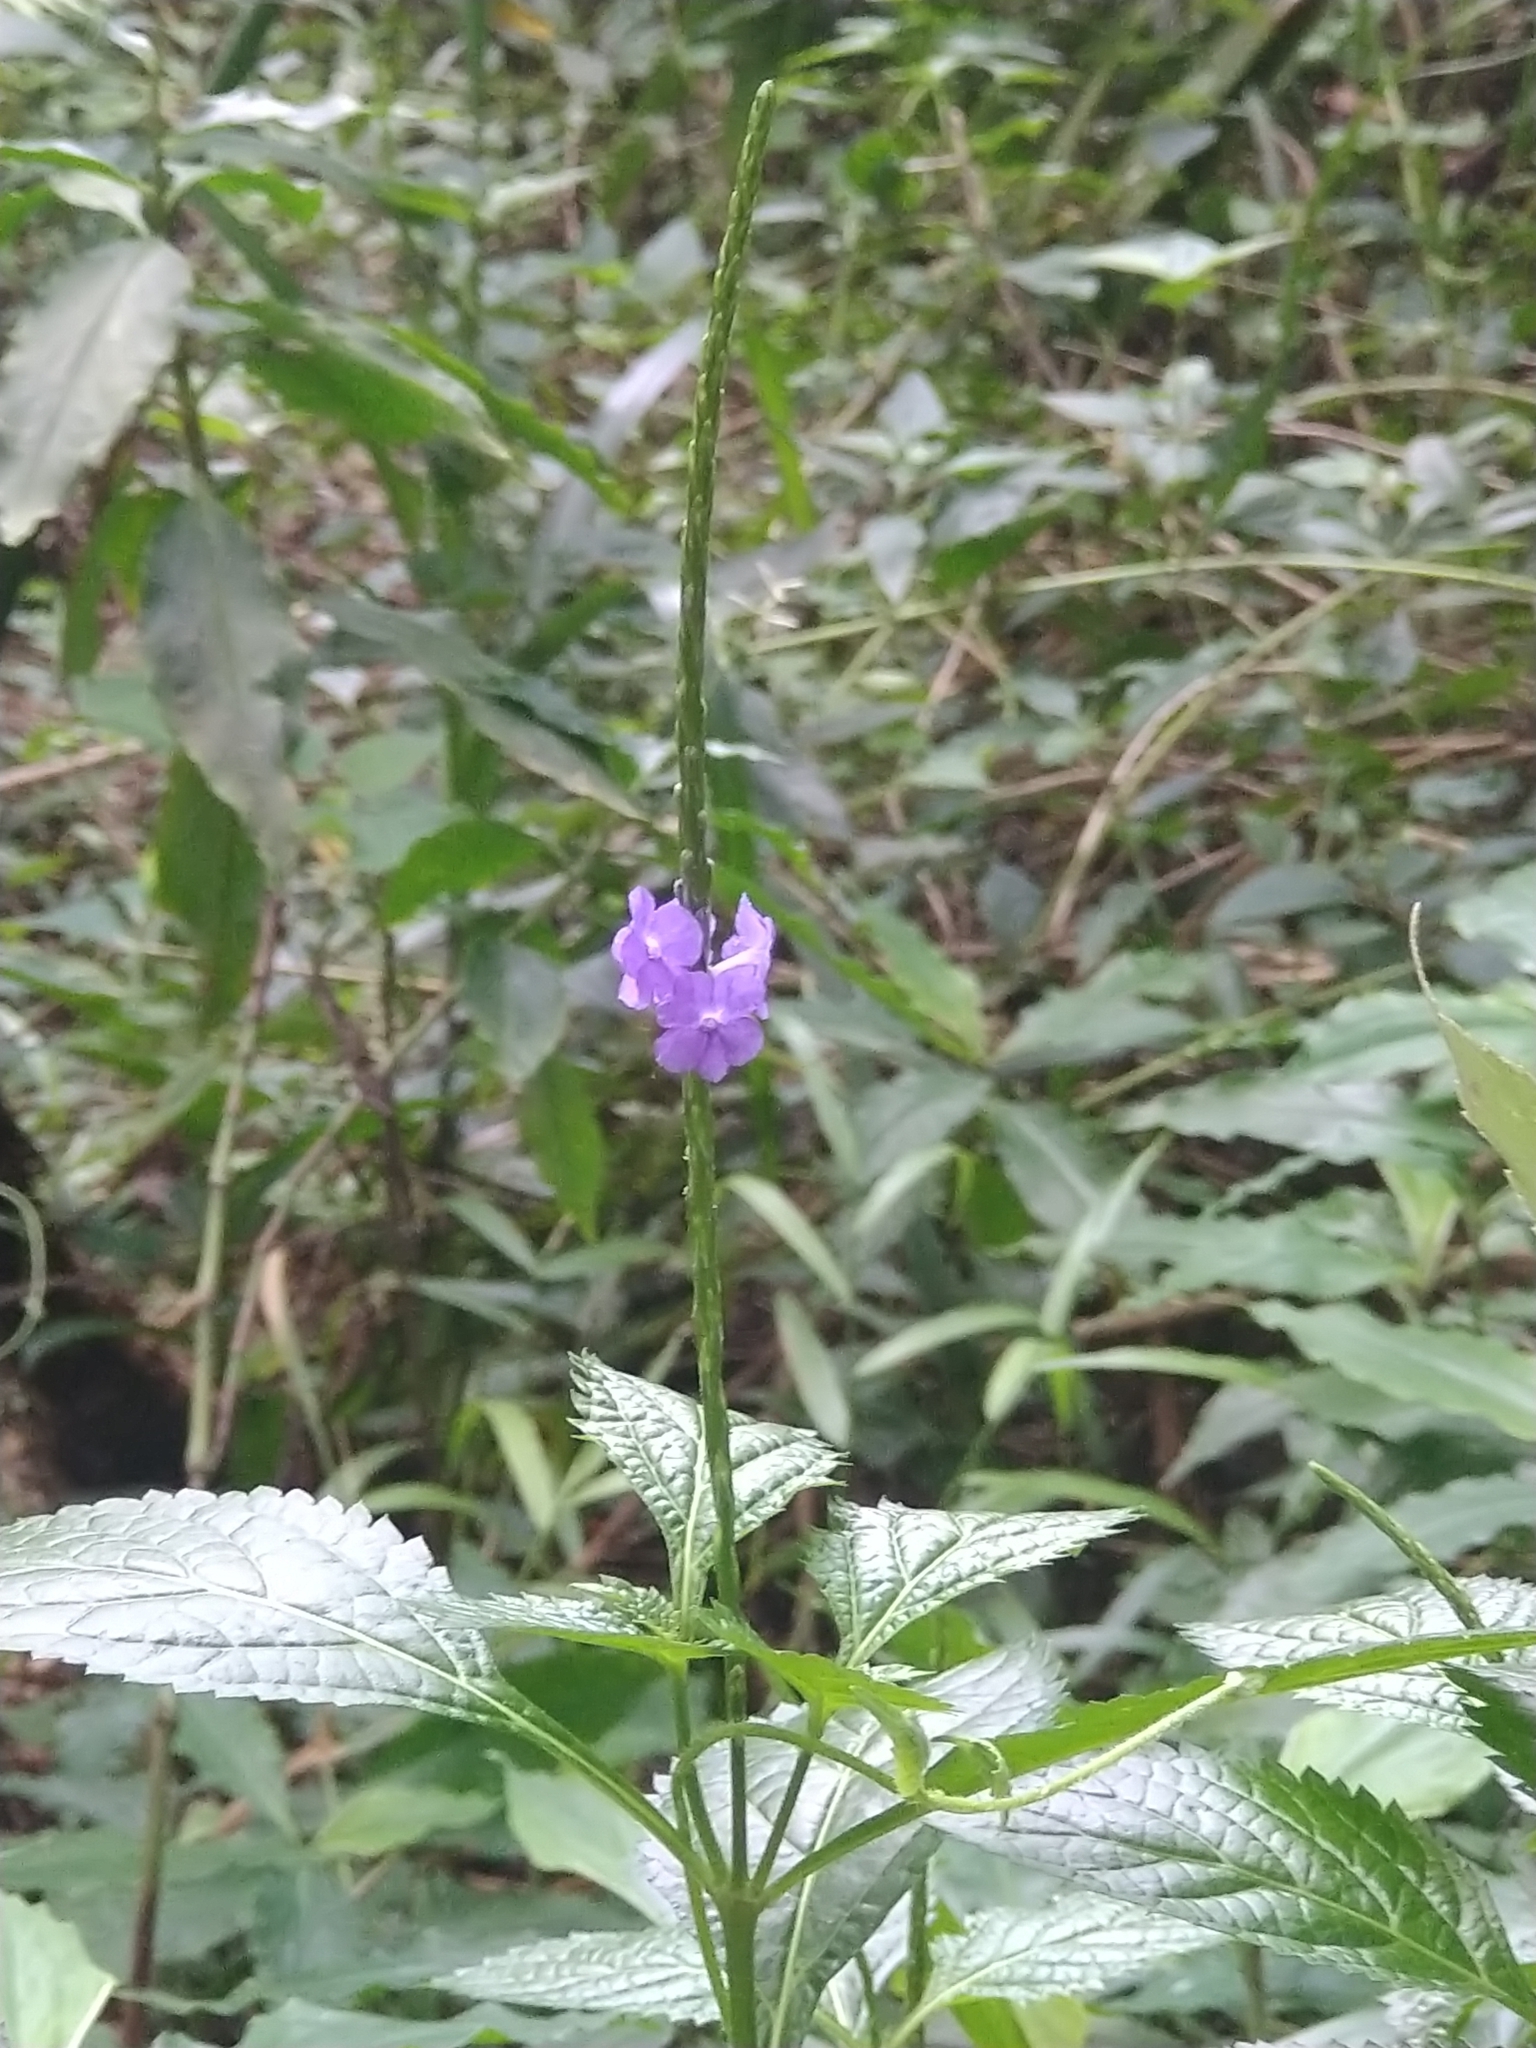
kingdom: Plantae
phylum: Tracheophyta
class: Magnoliopsida
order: Lamiales
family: Verbenaceae
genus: Stachytarpheta
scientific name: Stachytarpheta urticifolia
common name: Nettleleaf velvetberry
